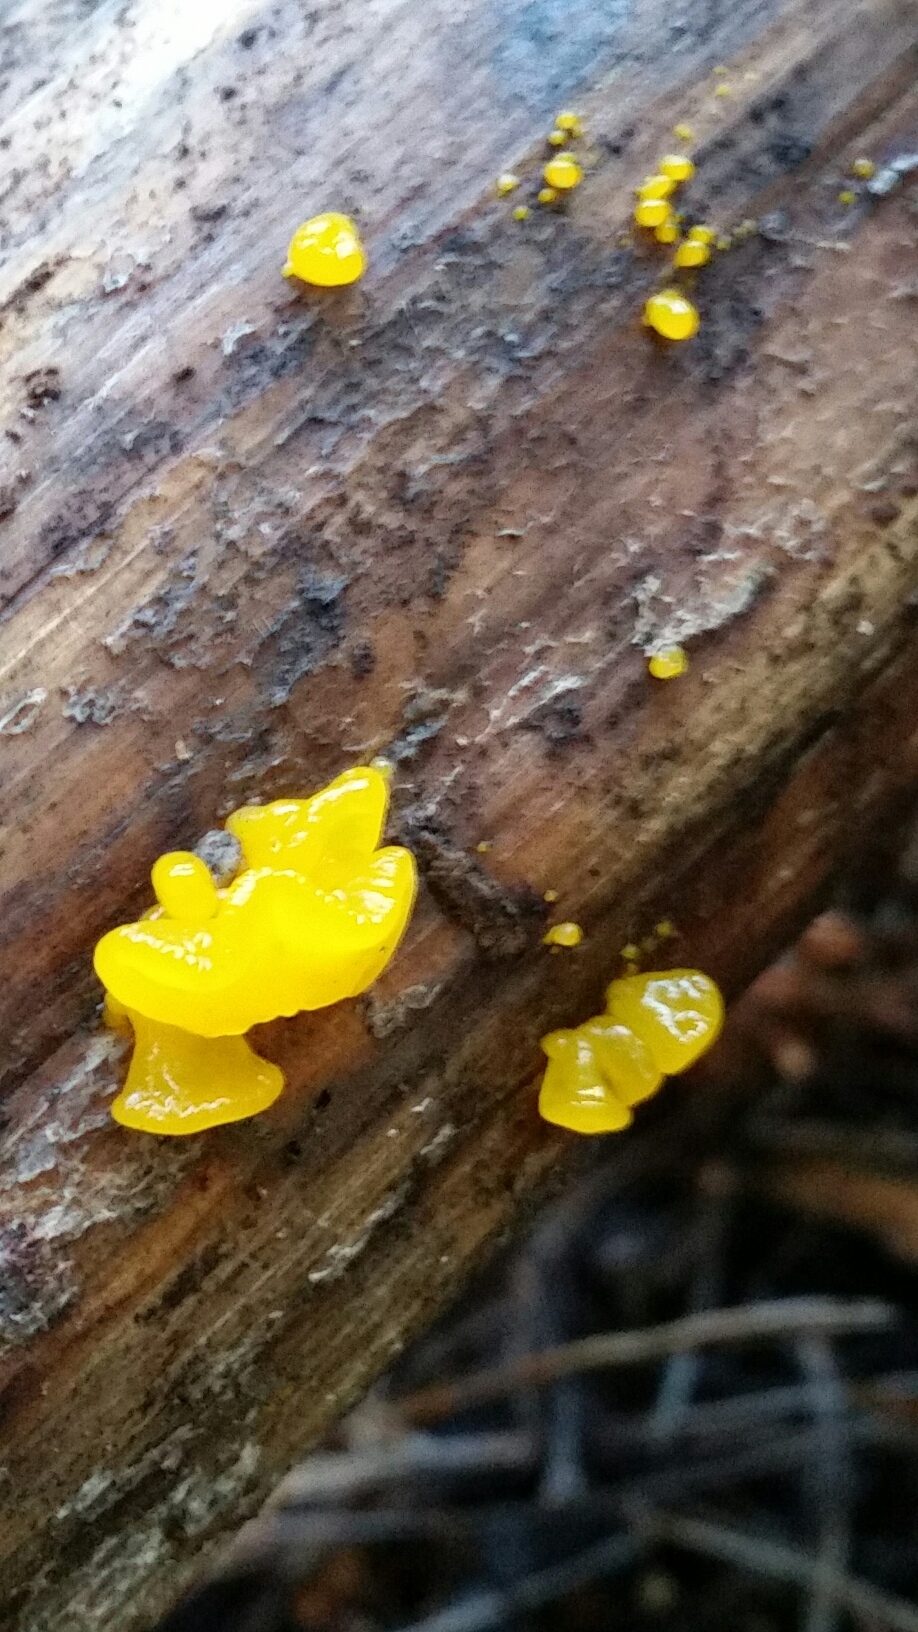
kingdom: Fungi
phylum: Basidiomycota
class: Dacrymycetes
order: Dacrymycetales
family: Dacrymycetaceae
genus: Dacrymyces
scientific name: Dacrymyces chrysospermus
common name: Orange jelly spot
